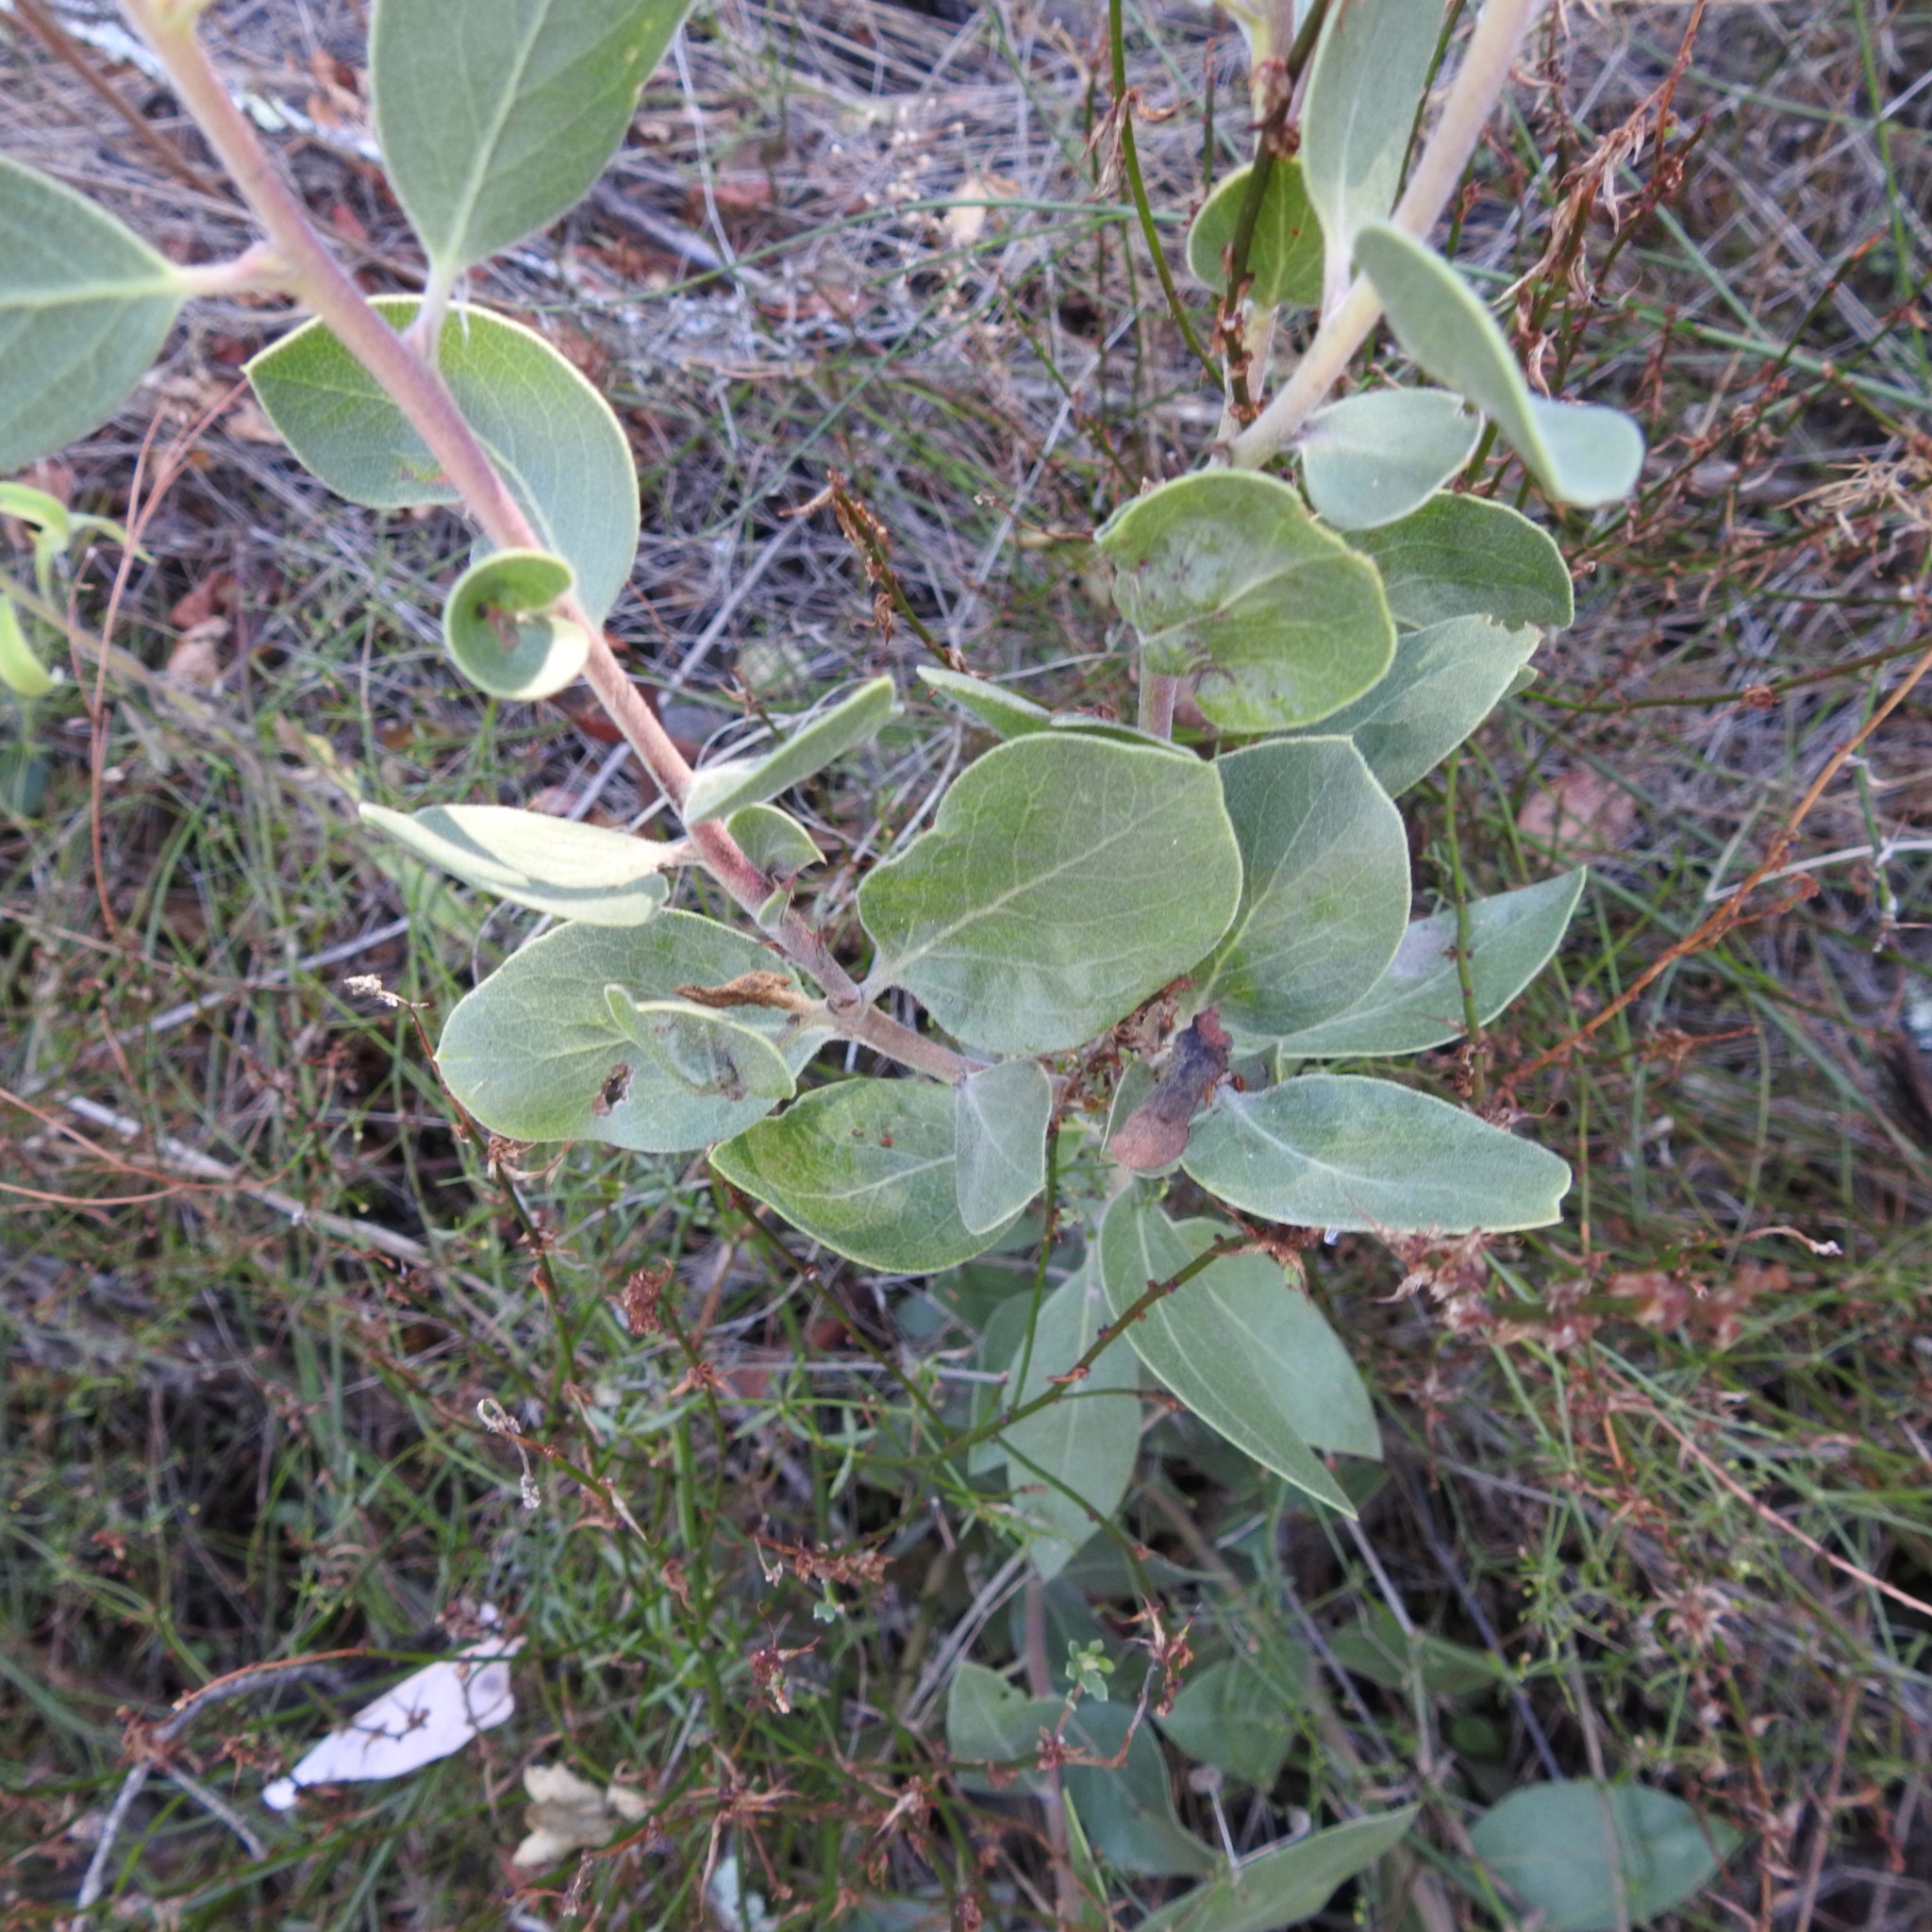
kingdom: Plantae
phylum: Tracheophyta
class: Magnoliopsida
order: Ericales
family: Ericaceae
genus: Arctostaphylos
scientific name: Arctostaphylos manzanita
